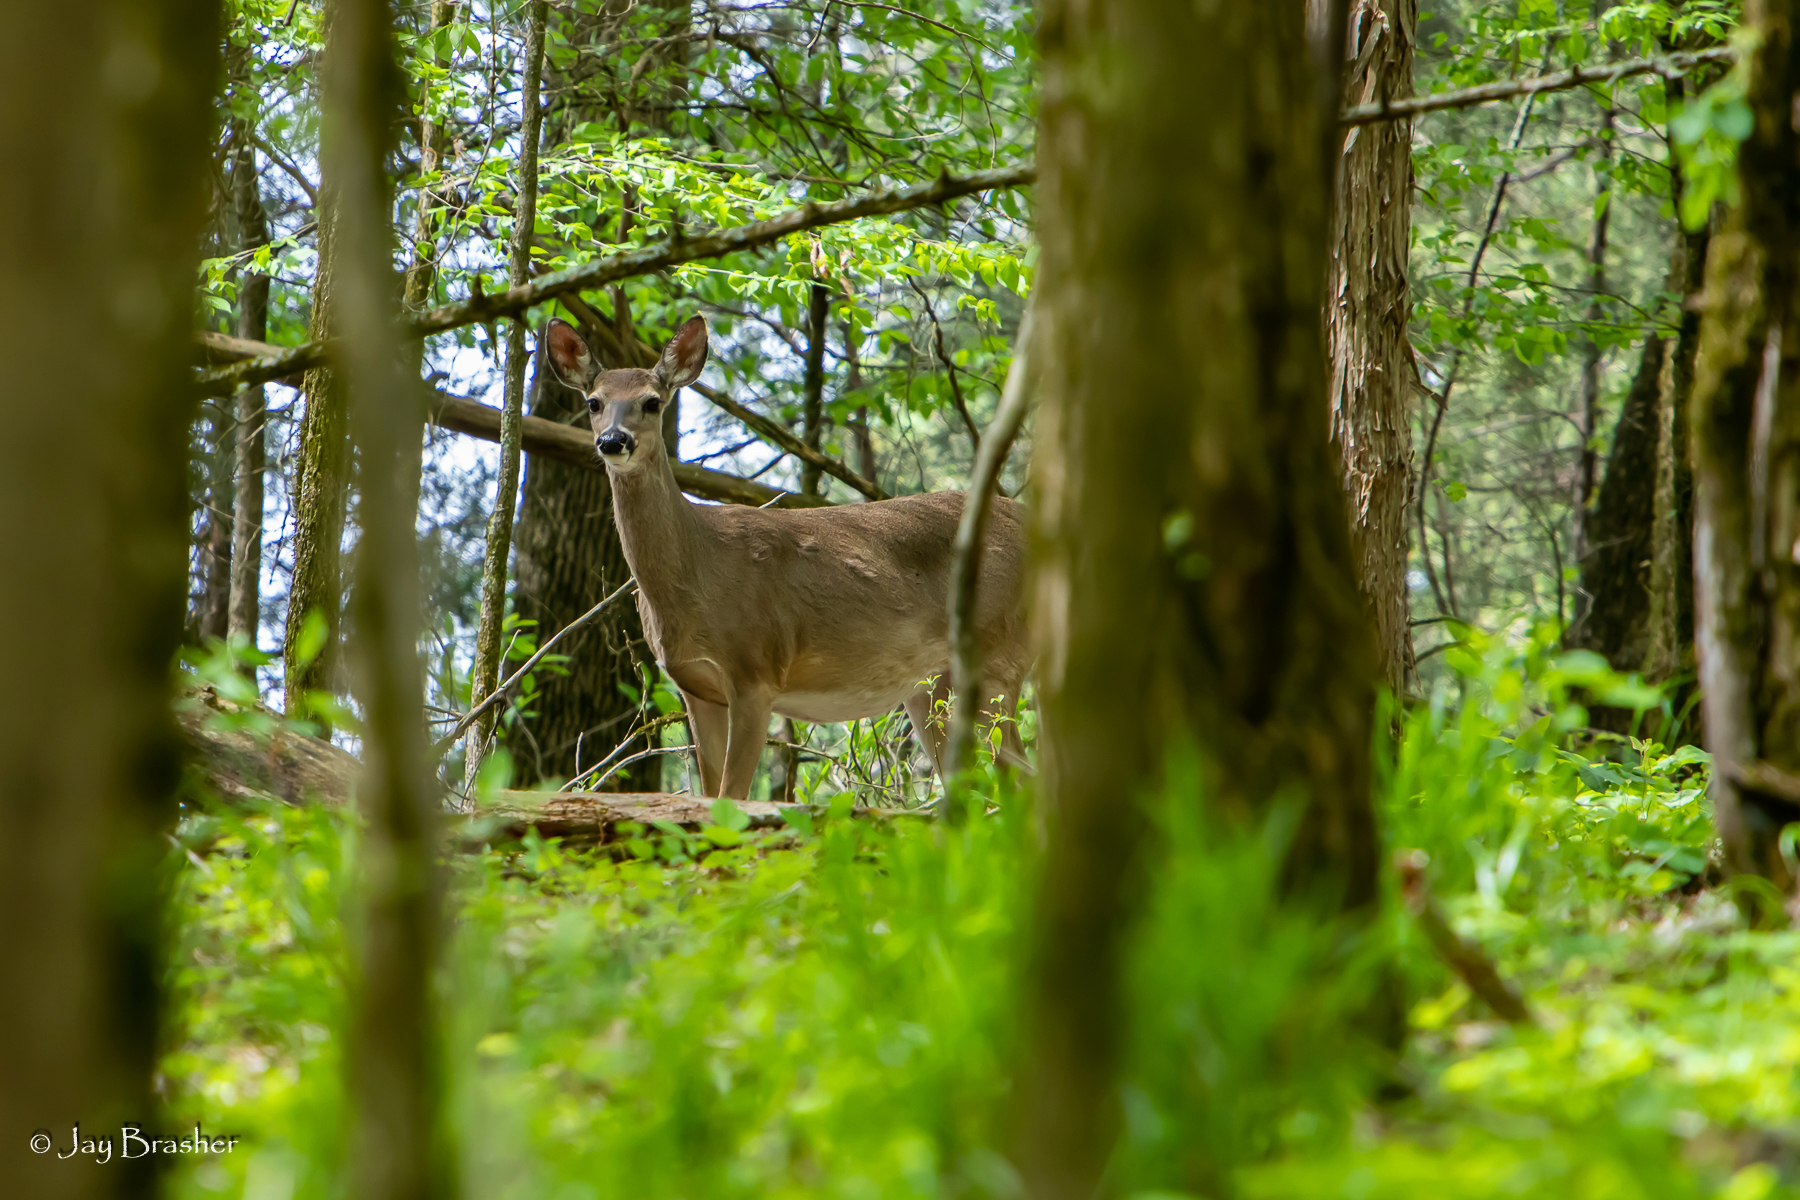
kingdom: Animalia
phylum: Chordata
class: Mammalia
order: Artiodactyla
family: Cervidae
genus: Odocoileus
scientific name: Odocoileus virginianus
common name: White-tailed deer
